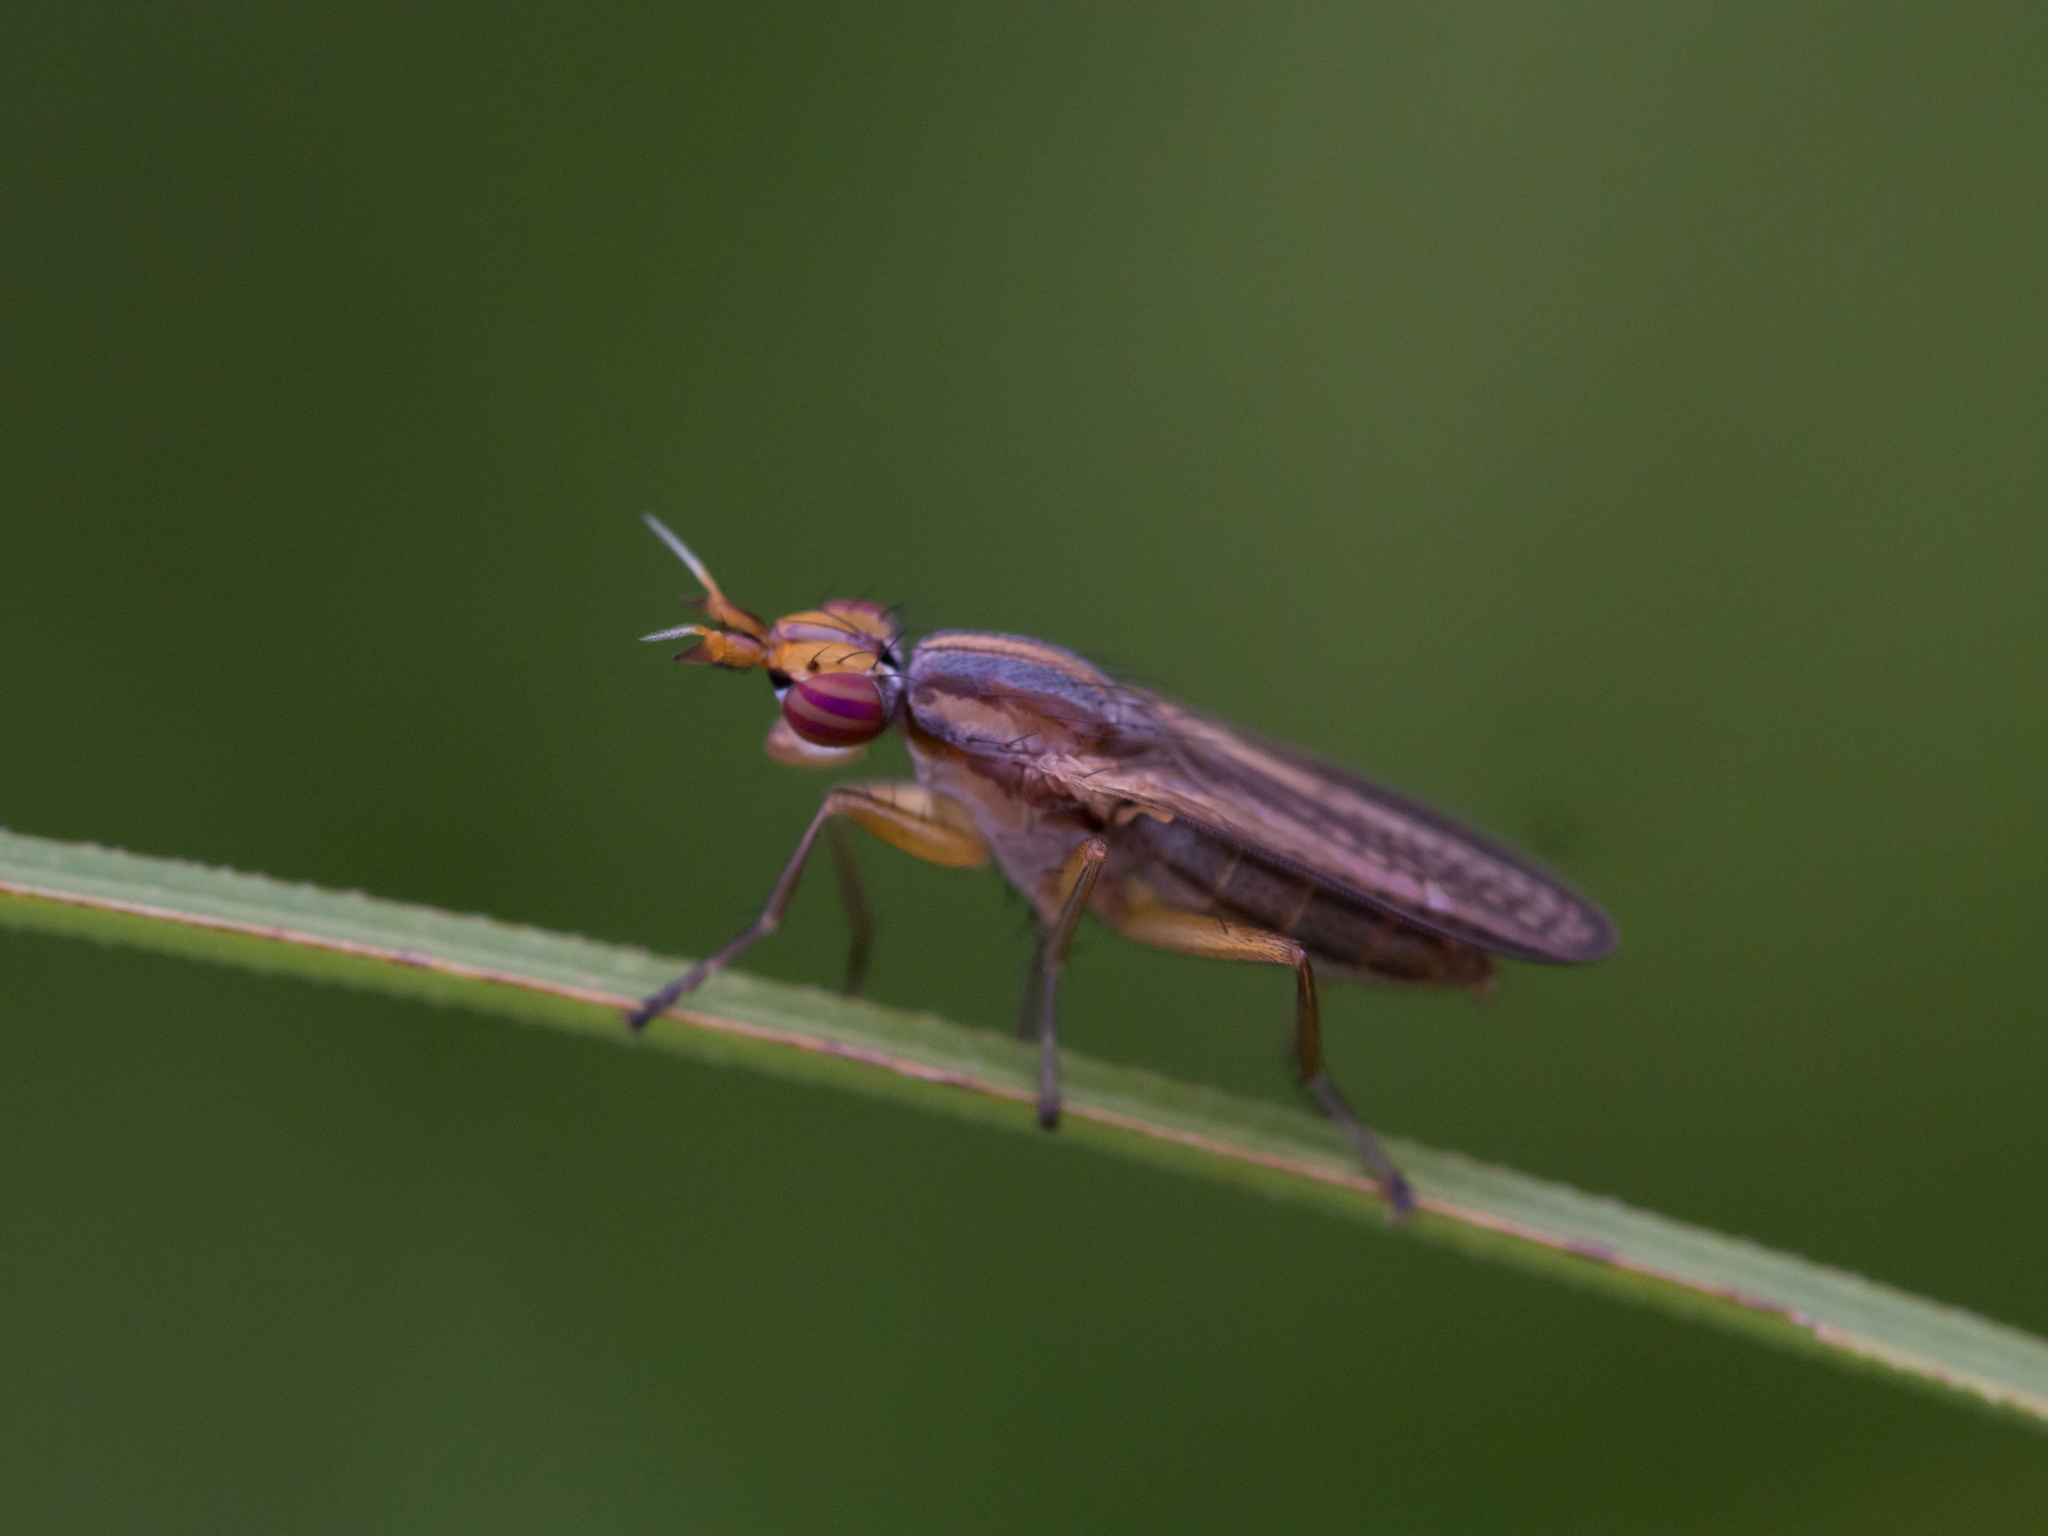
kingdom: Animalia
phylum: Arthropoda
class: Insecta
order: Diptera
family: Sciomyzidae
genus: Limnia
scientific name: Limnia unguicornis
